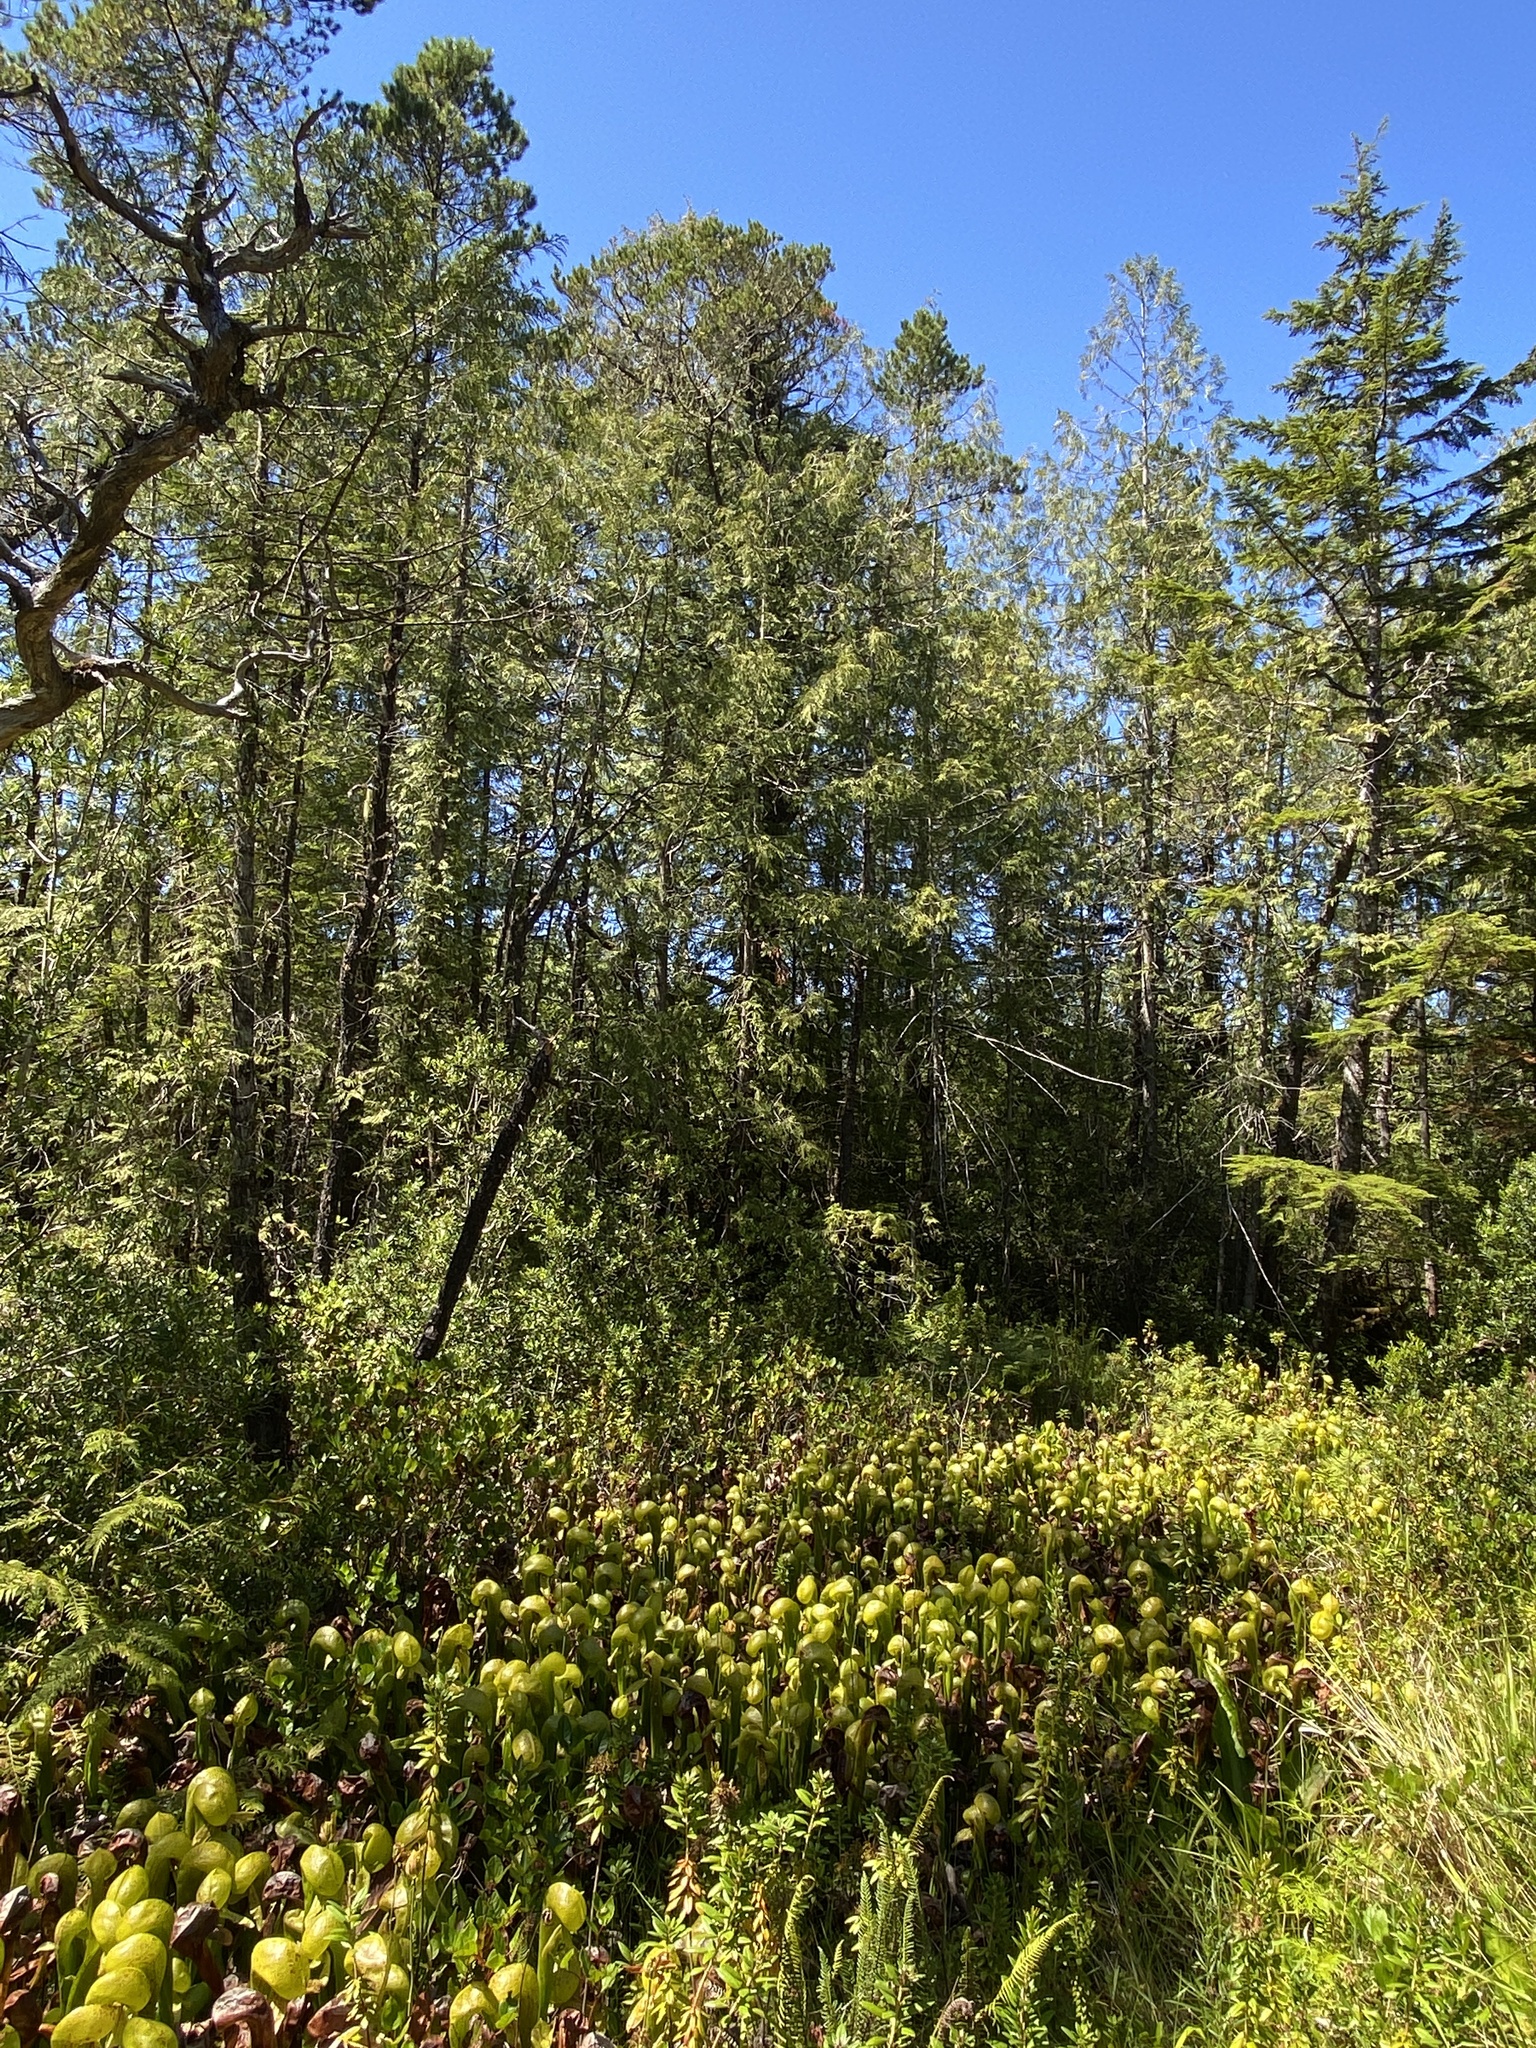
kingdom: Plantae
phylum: Tracheophyta
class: Magnoliopsida
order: Ericales
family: Sarraceniaceae
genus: Darlingtonia
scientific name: Darlingtonia californica
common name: California pitcher plant
